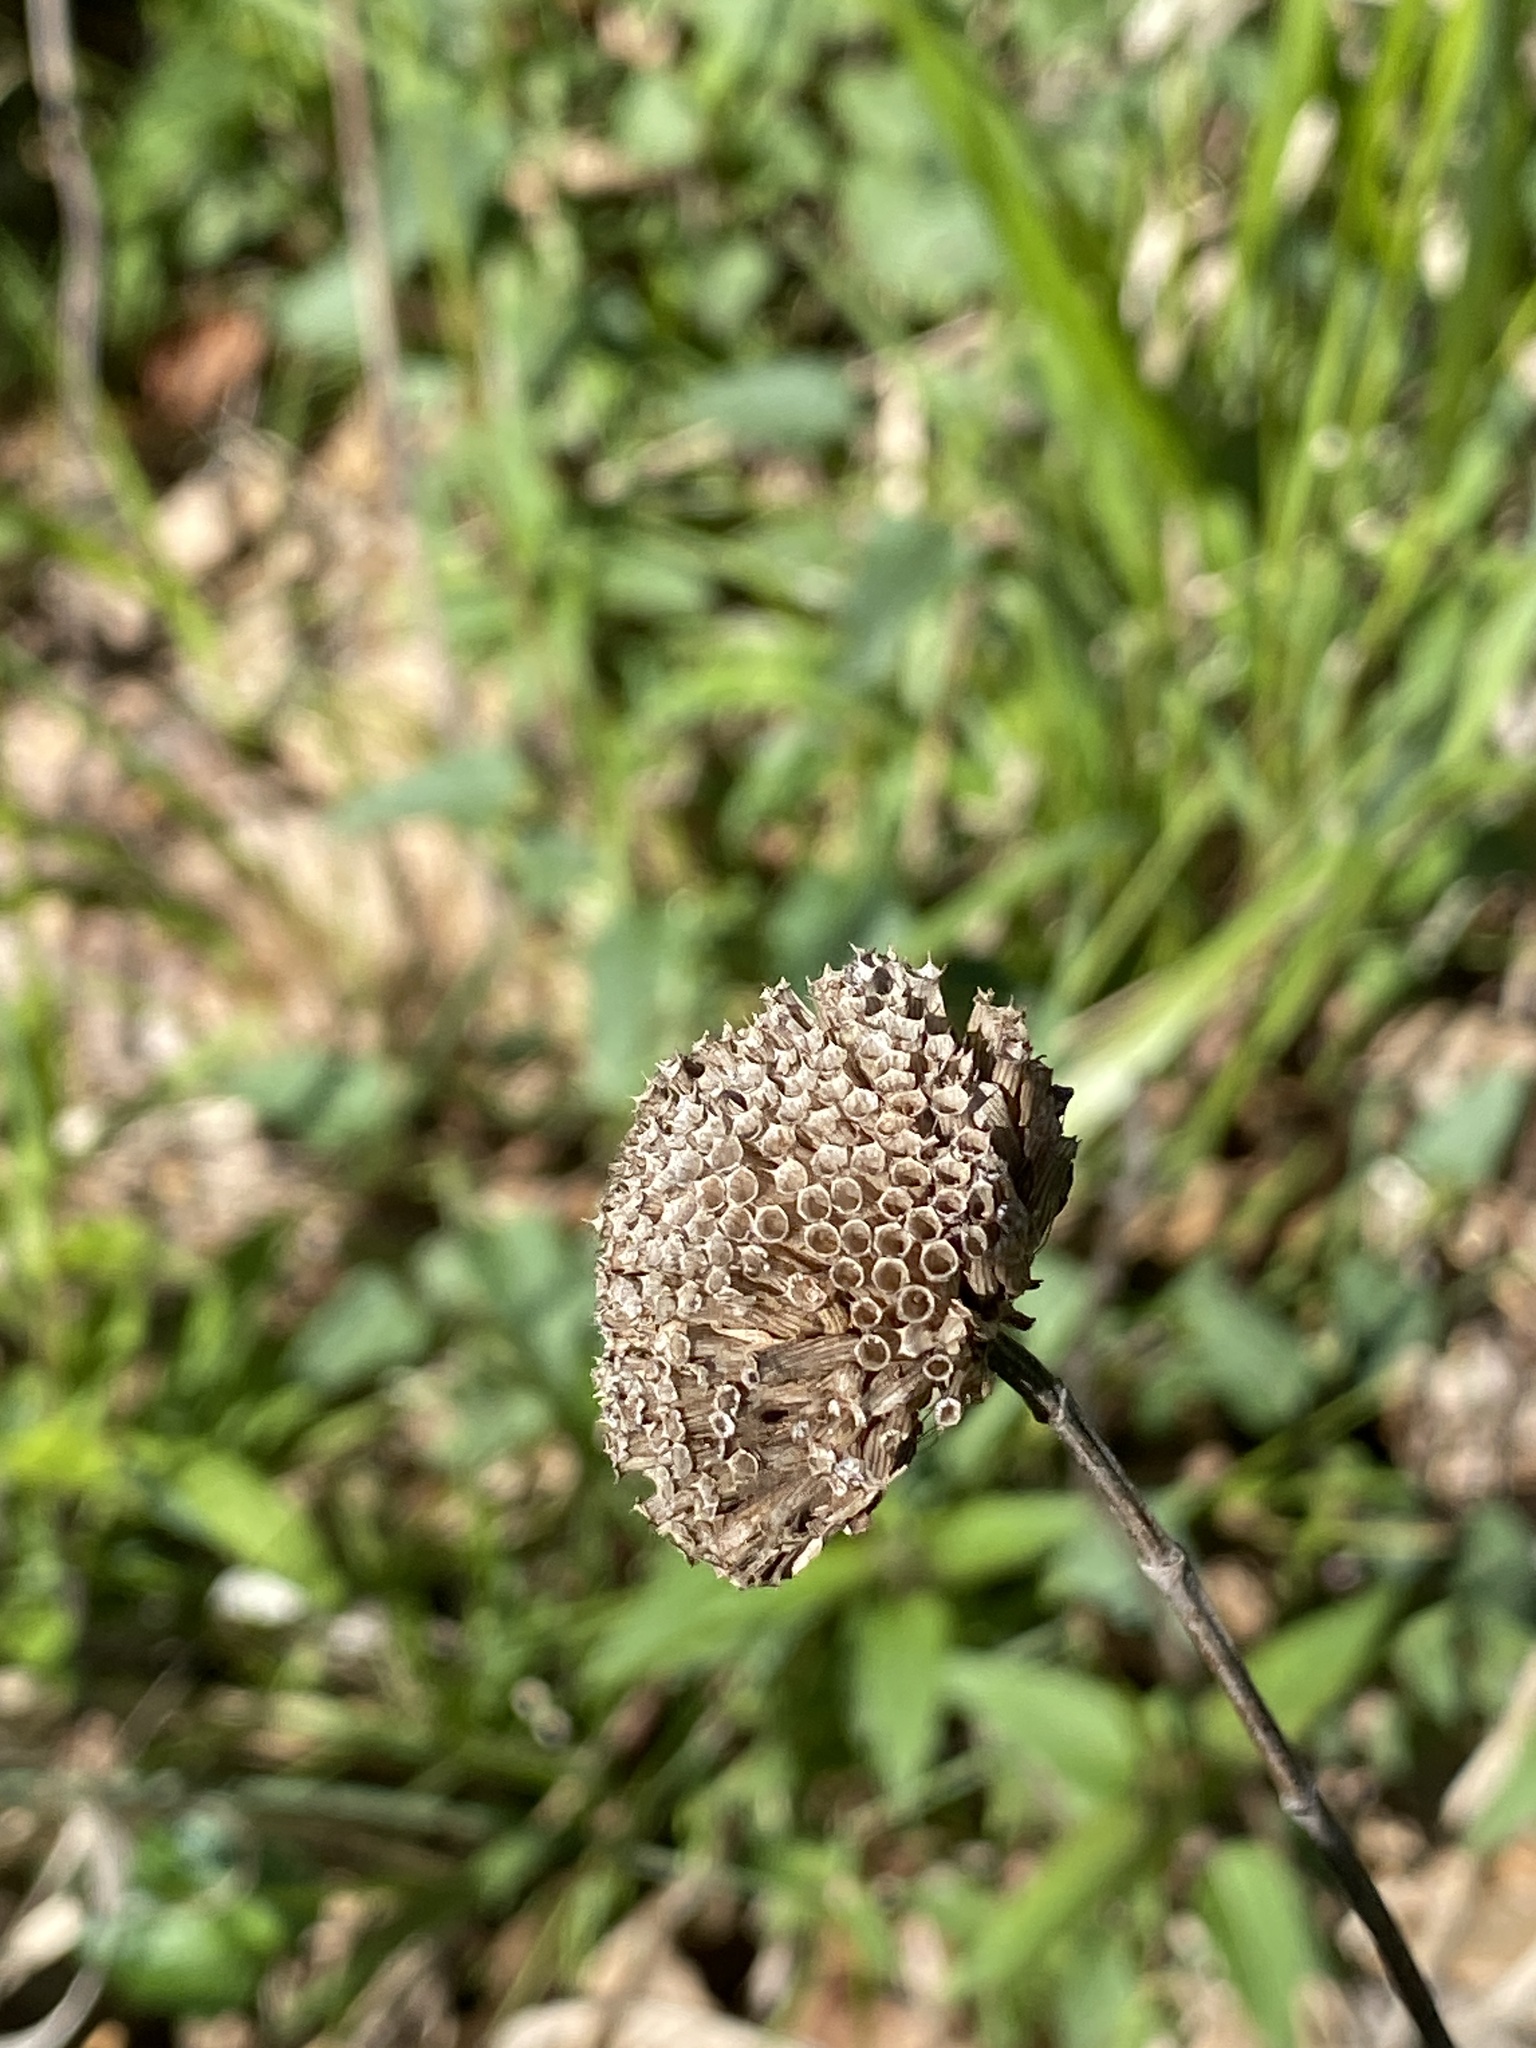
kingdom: Plantae
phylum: Tracheophyta
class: Magnoliopsida
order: Lamiales
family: Lamiaceae
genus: Monarda
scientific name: Monarda fistulosa
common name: Purple beebalm
